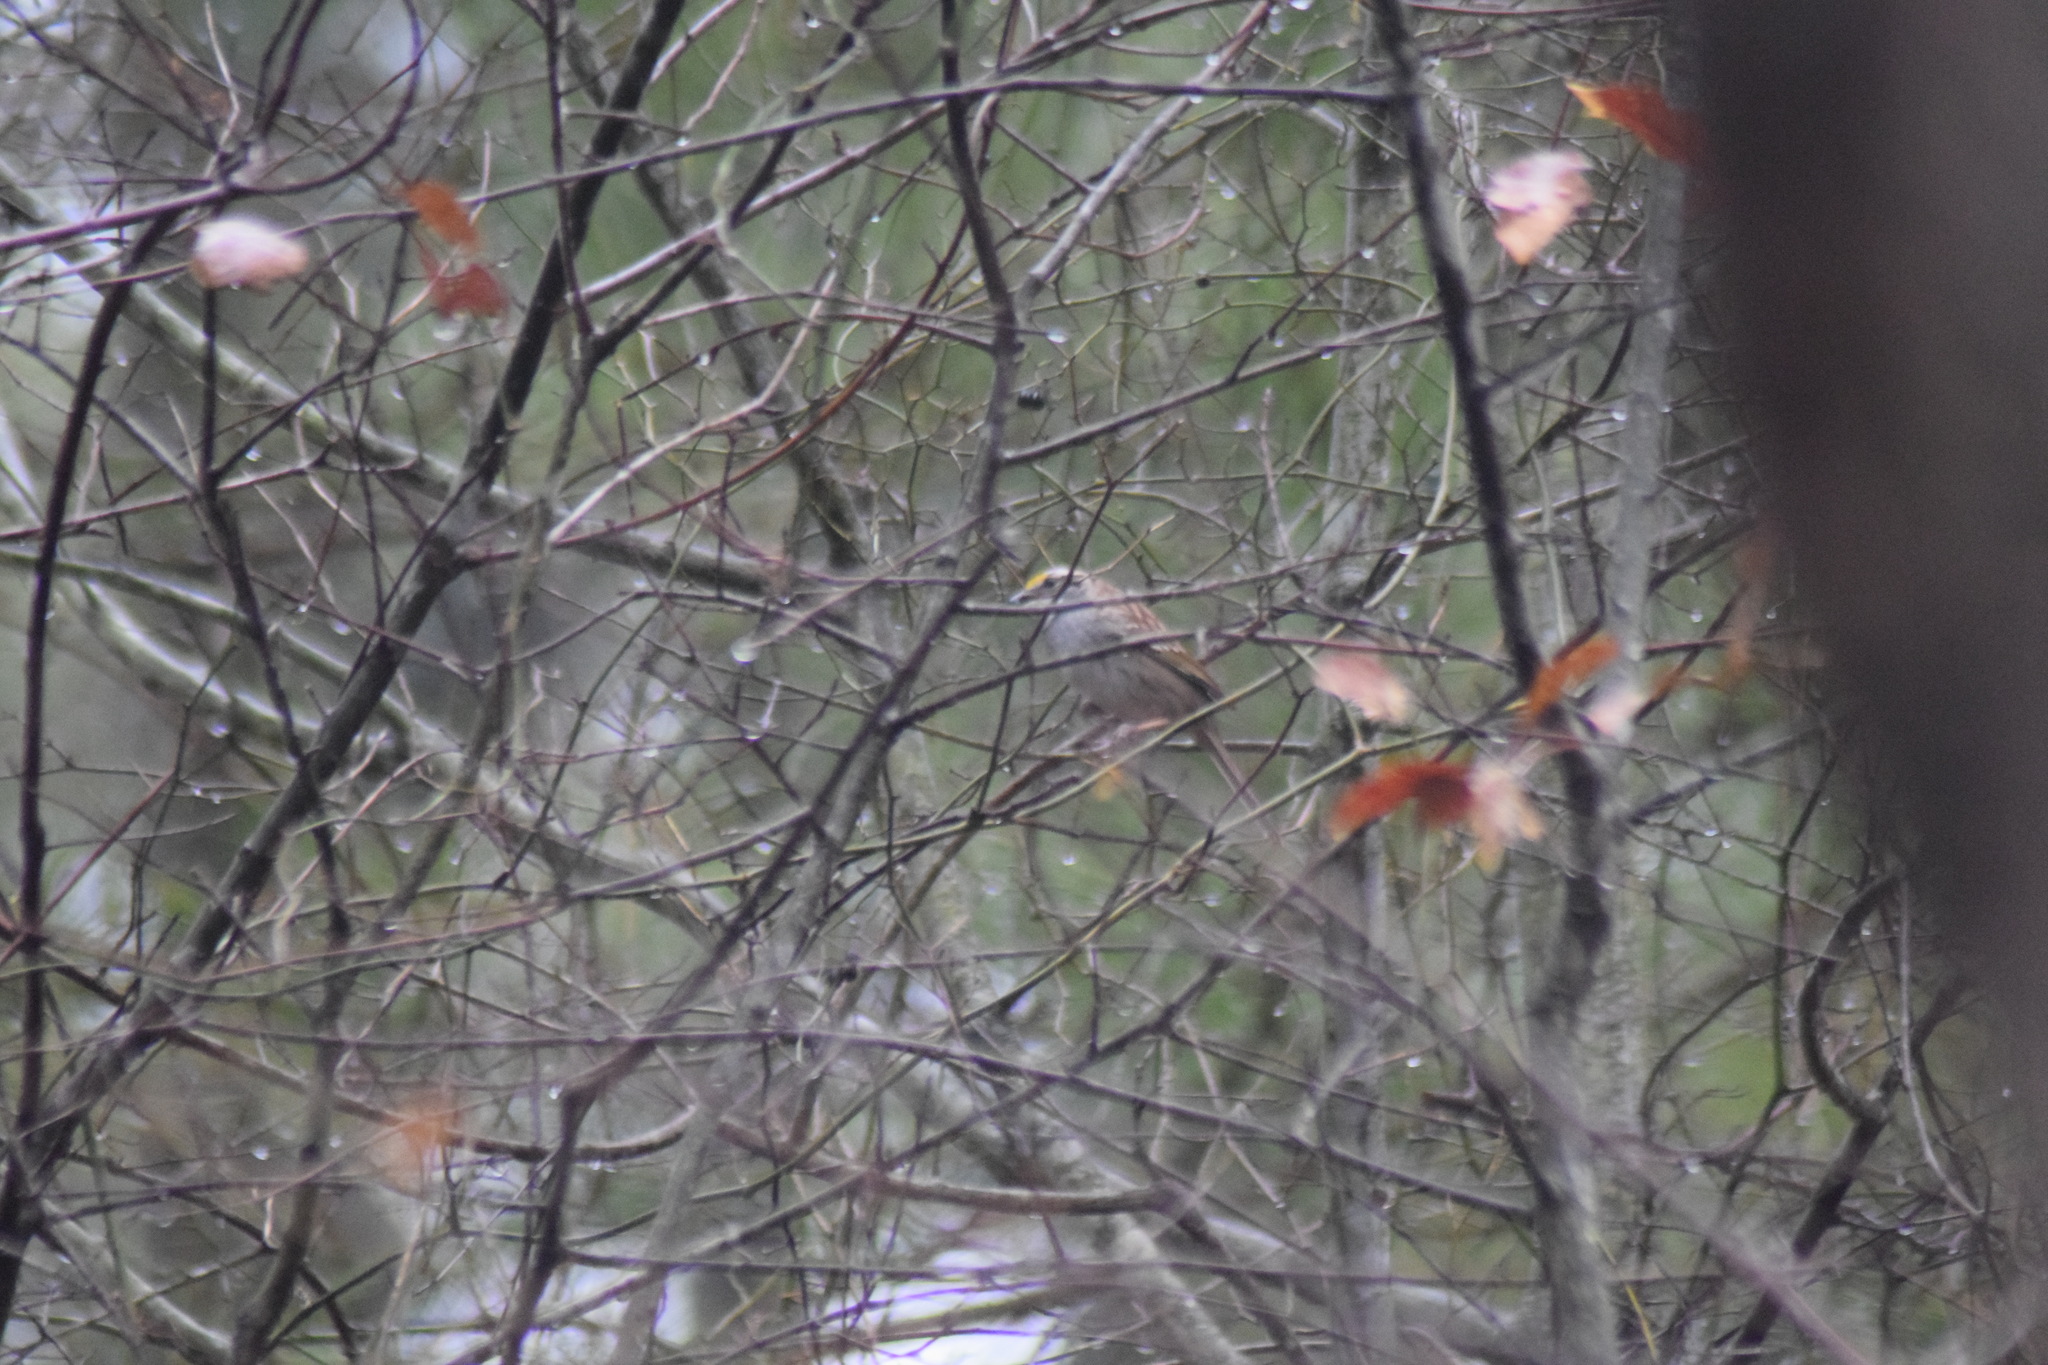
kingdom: Animalia
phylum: Chordata
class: Aves
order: Passeriformes
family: Passerellidae
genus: Zonotrichia
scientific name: Zonotrichia albicollis
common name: White-throated sparrow
